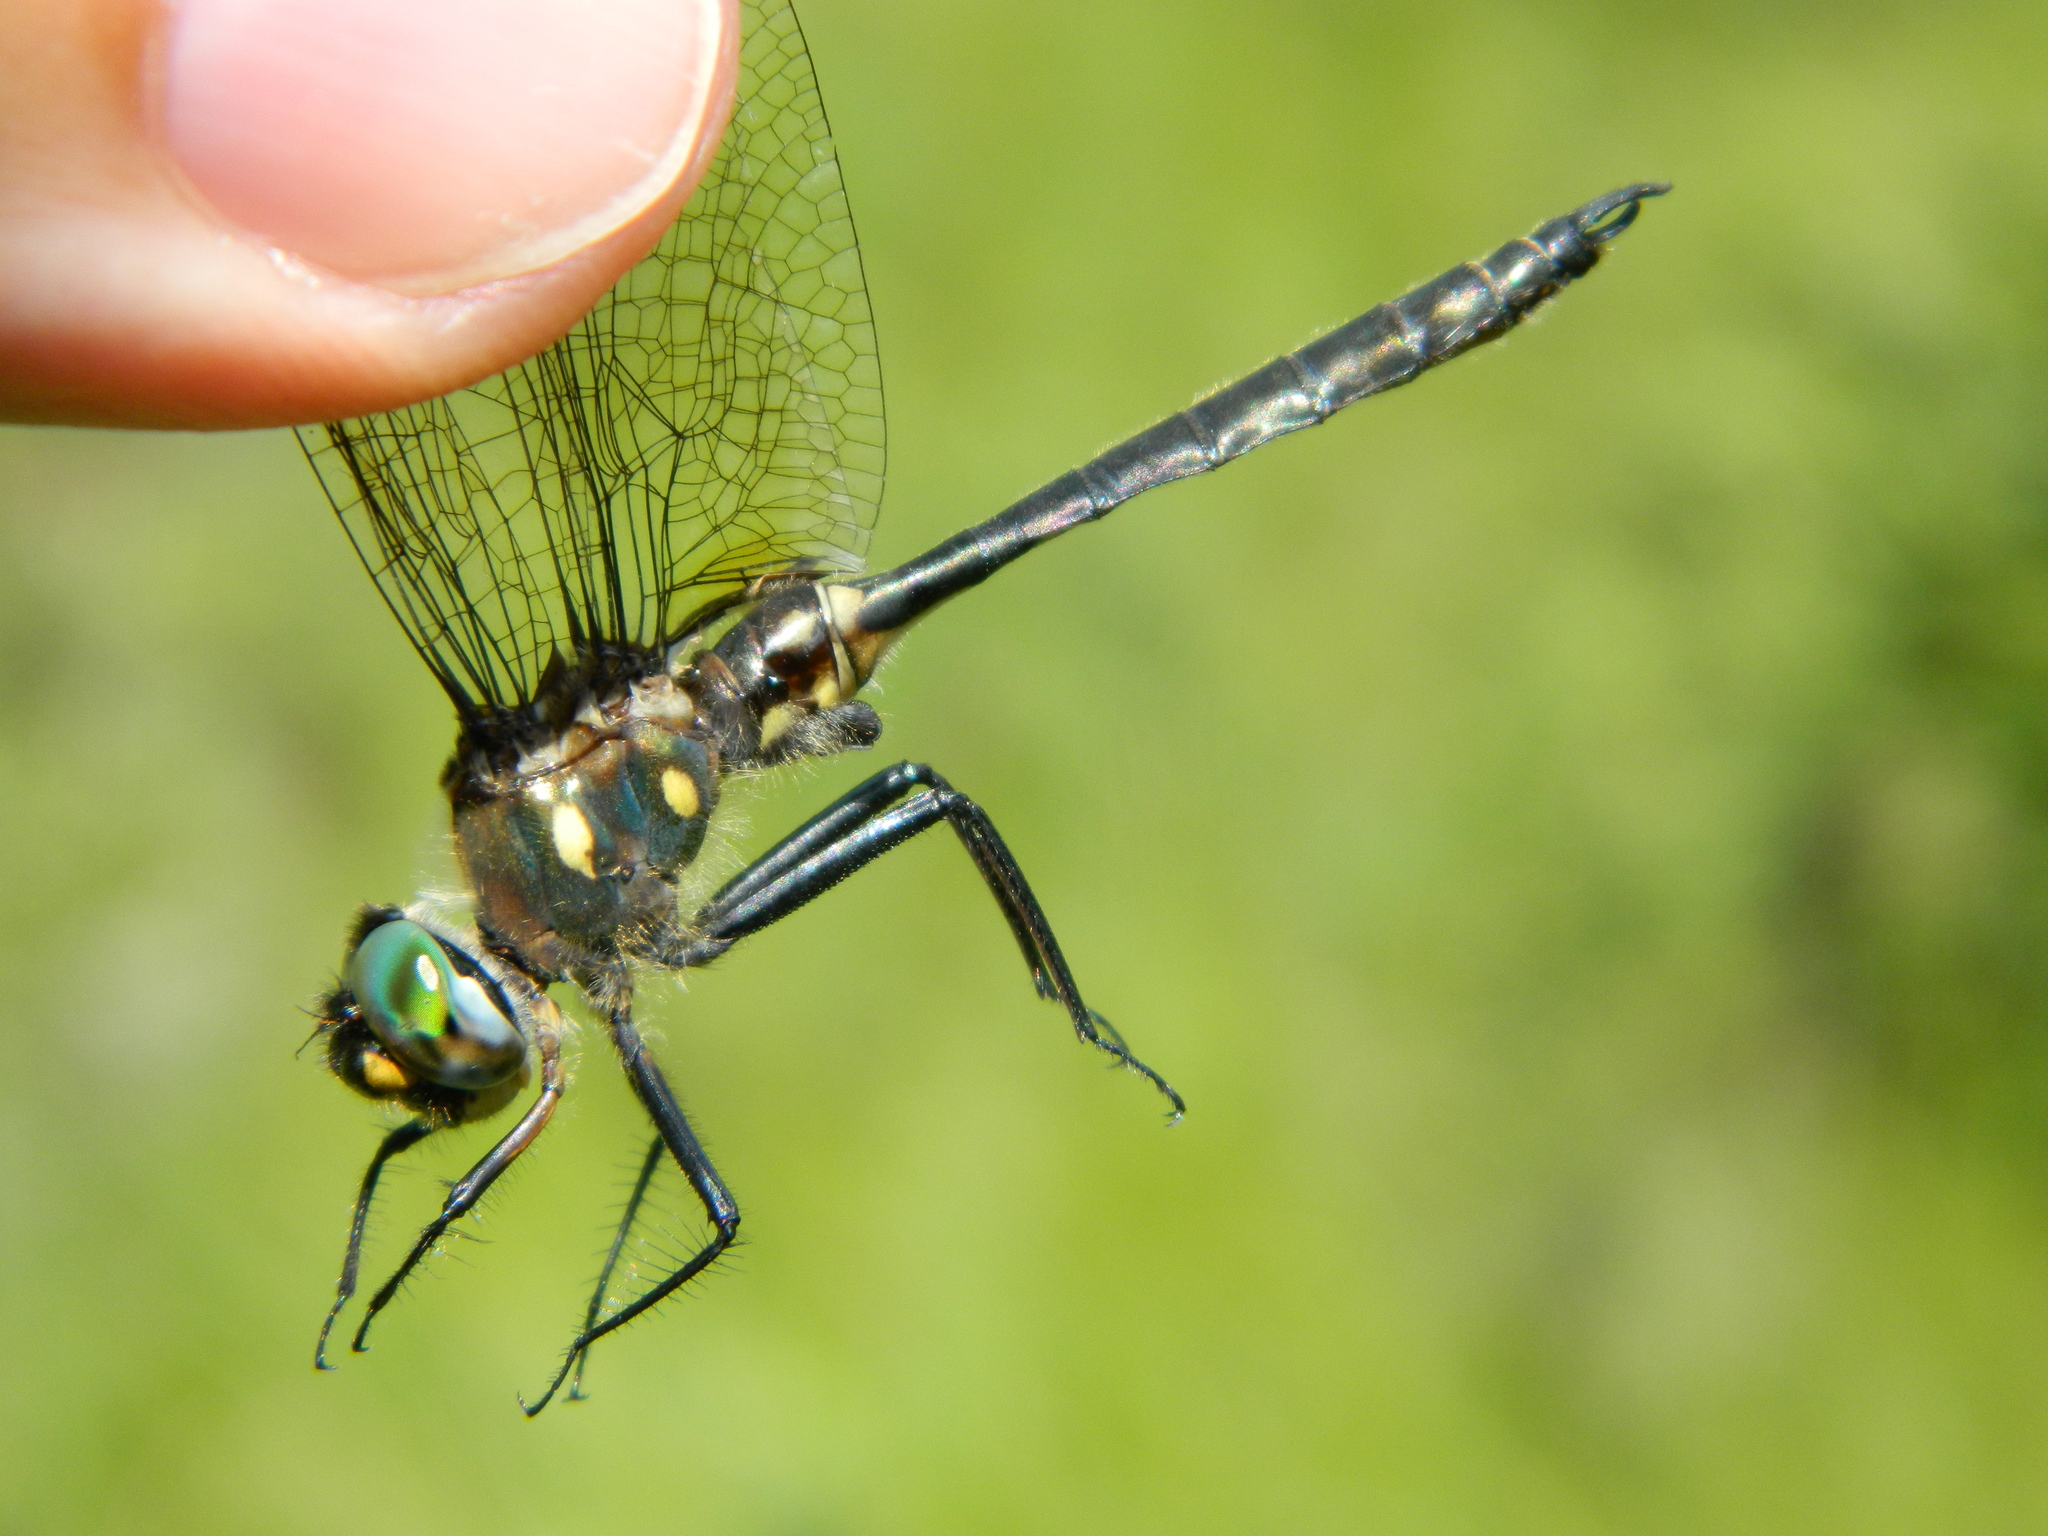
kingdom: Animalia
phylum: Arthropoda
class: Insecta
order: Odonata
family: Corduliidae
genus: Somatochlora
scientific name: Somatochlora minor
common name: Ocellated emerald
